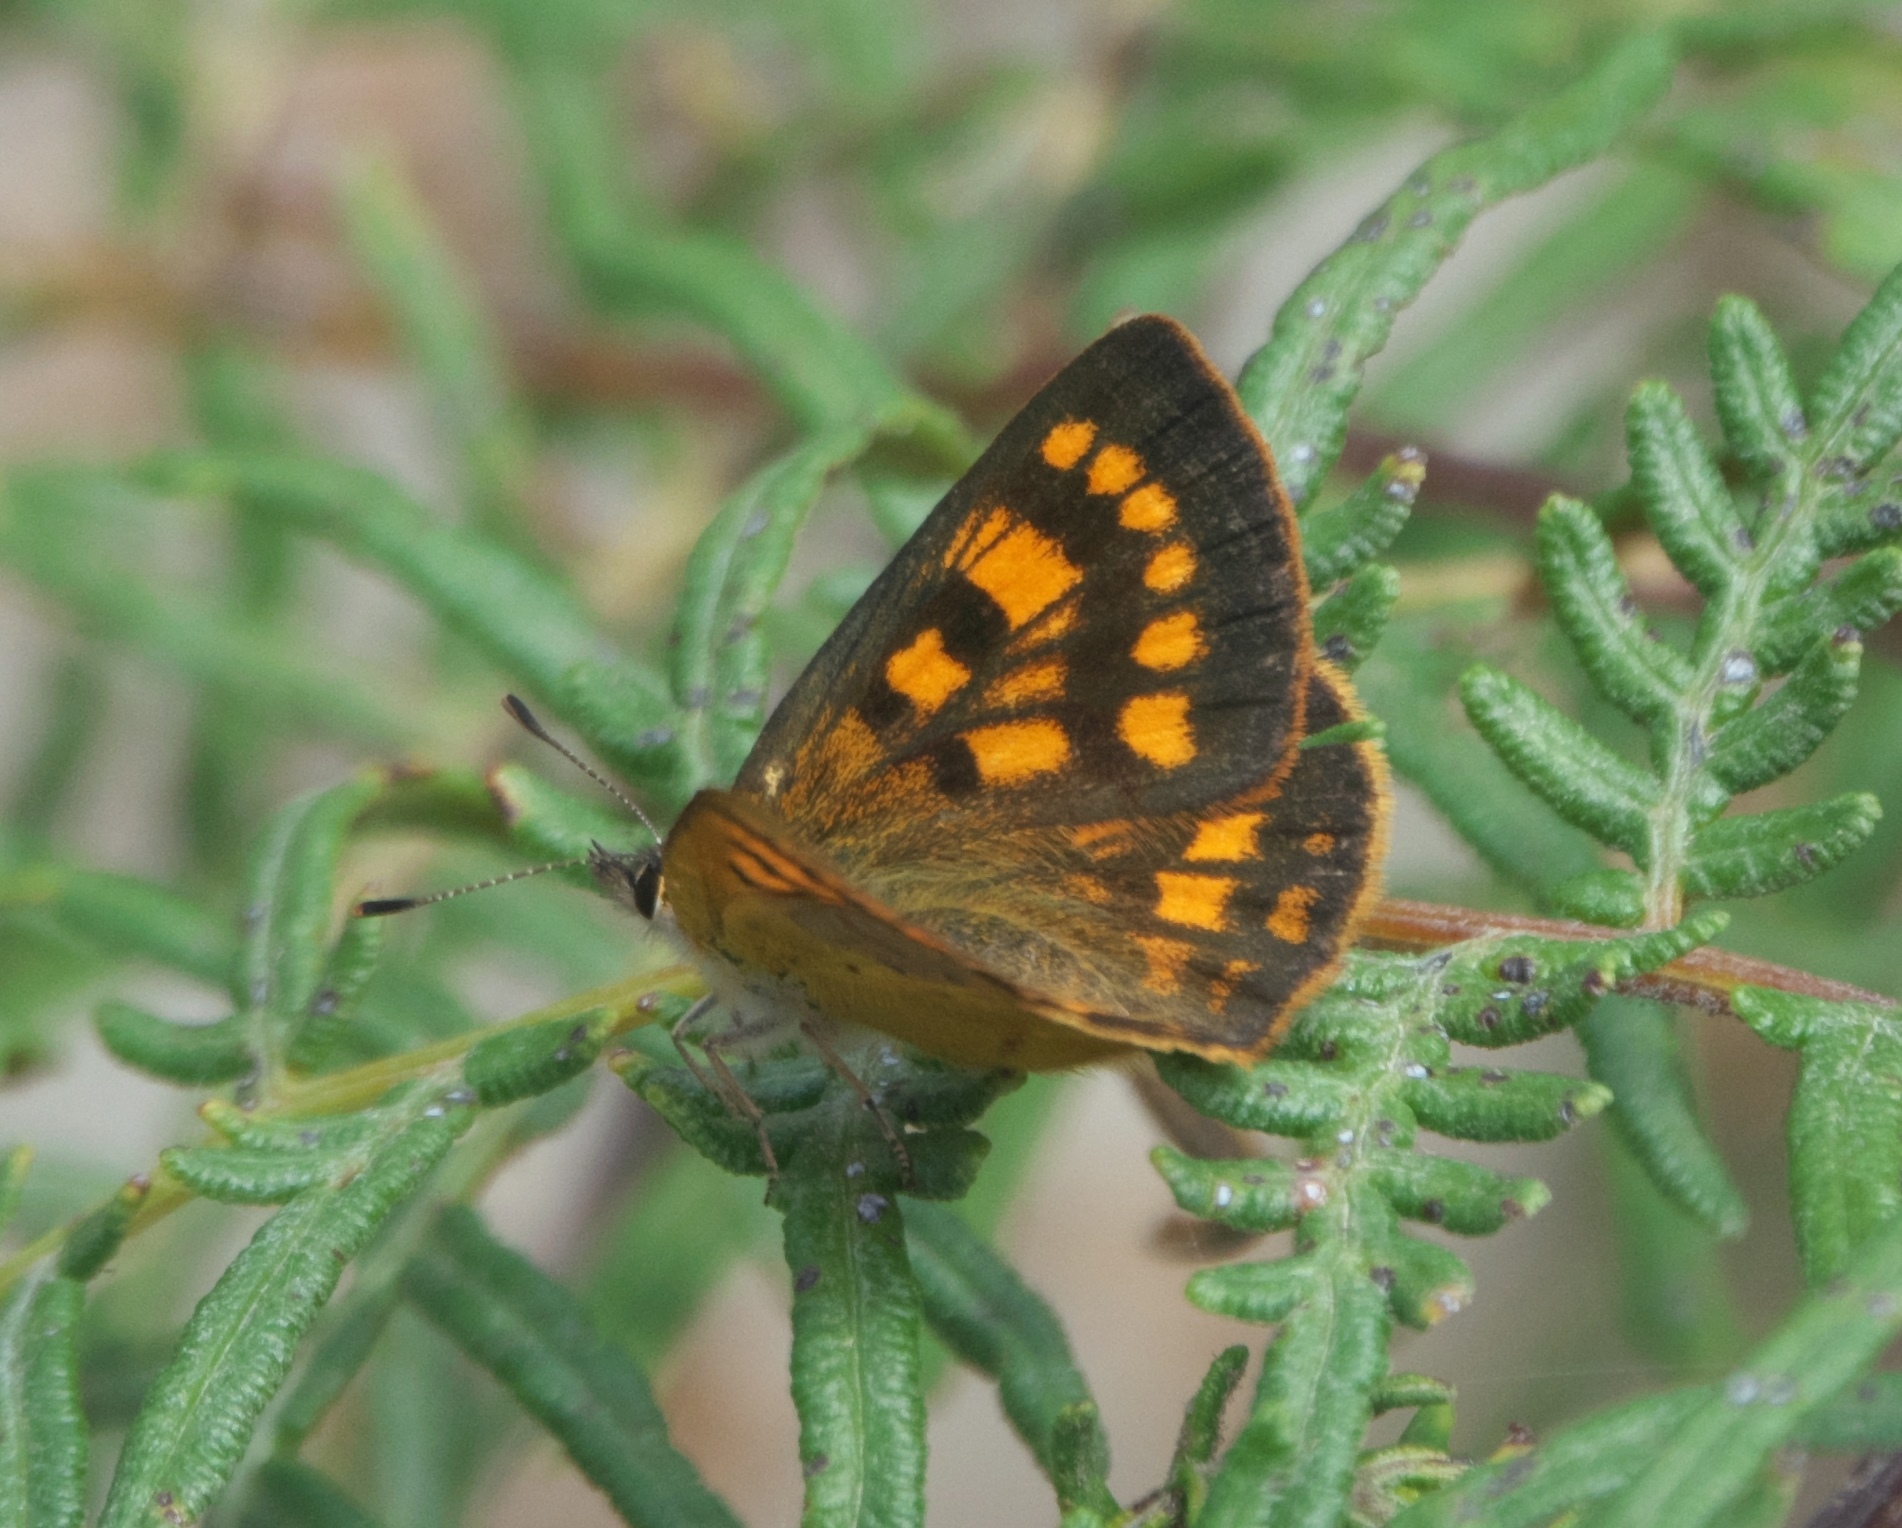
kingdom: Animalia
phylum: Arthropoda
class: Insecta
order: Lepidoptera
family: Lycaenidae
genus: Lycaena
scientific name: Lycaena feredayi
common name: Glade copper
